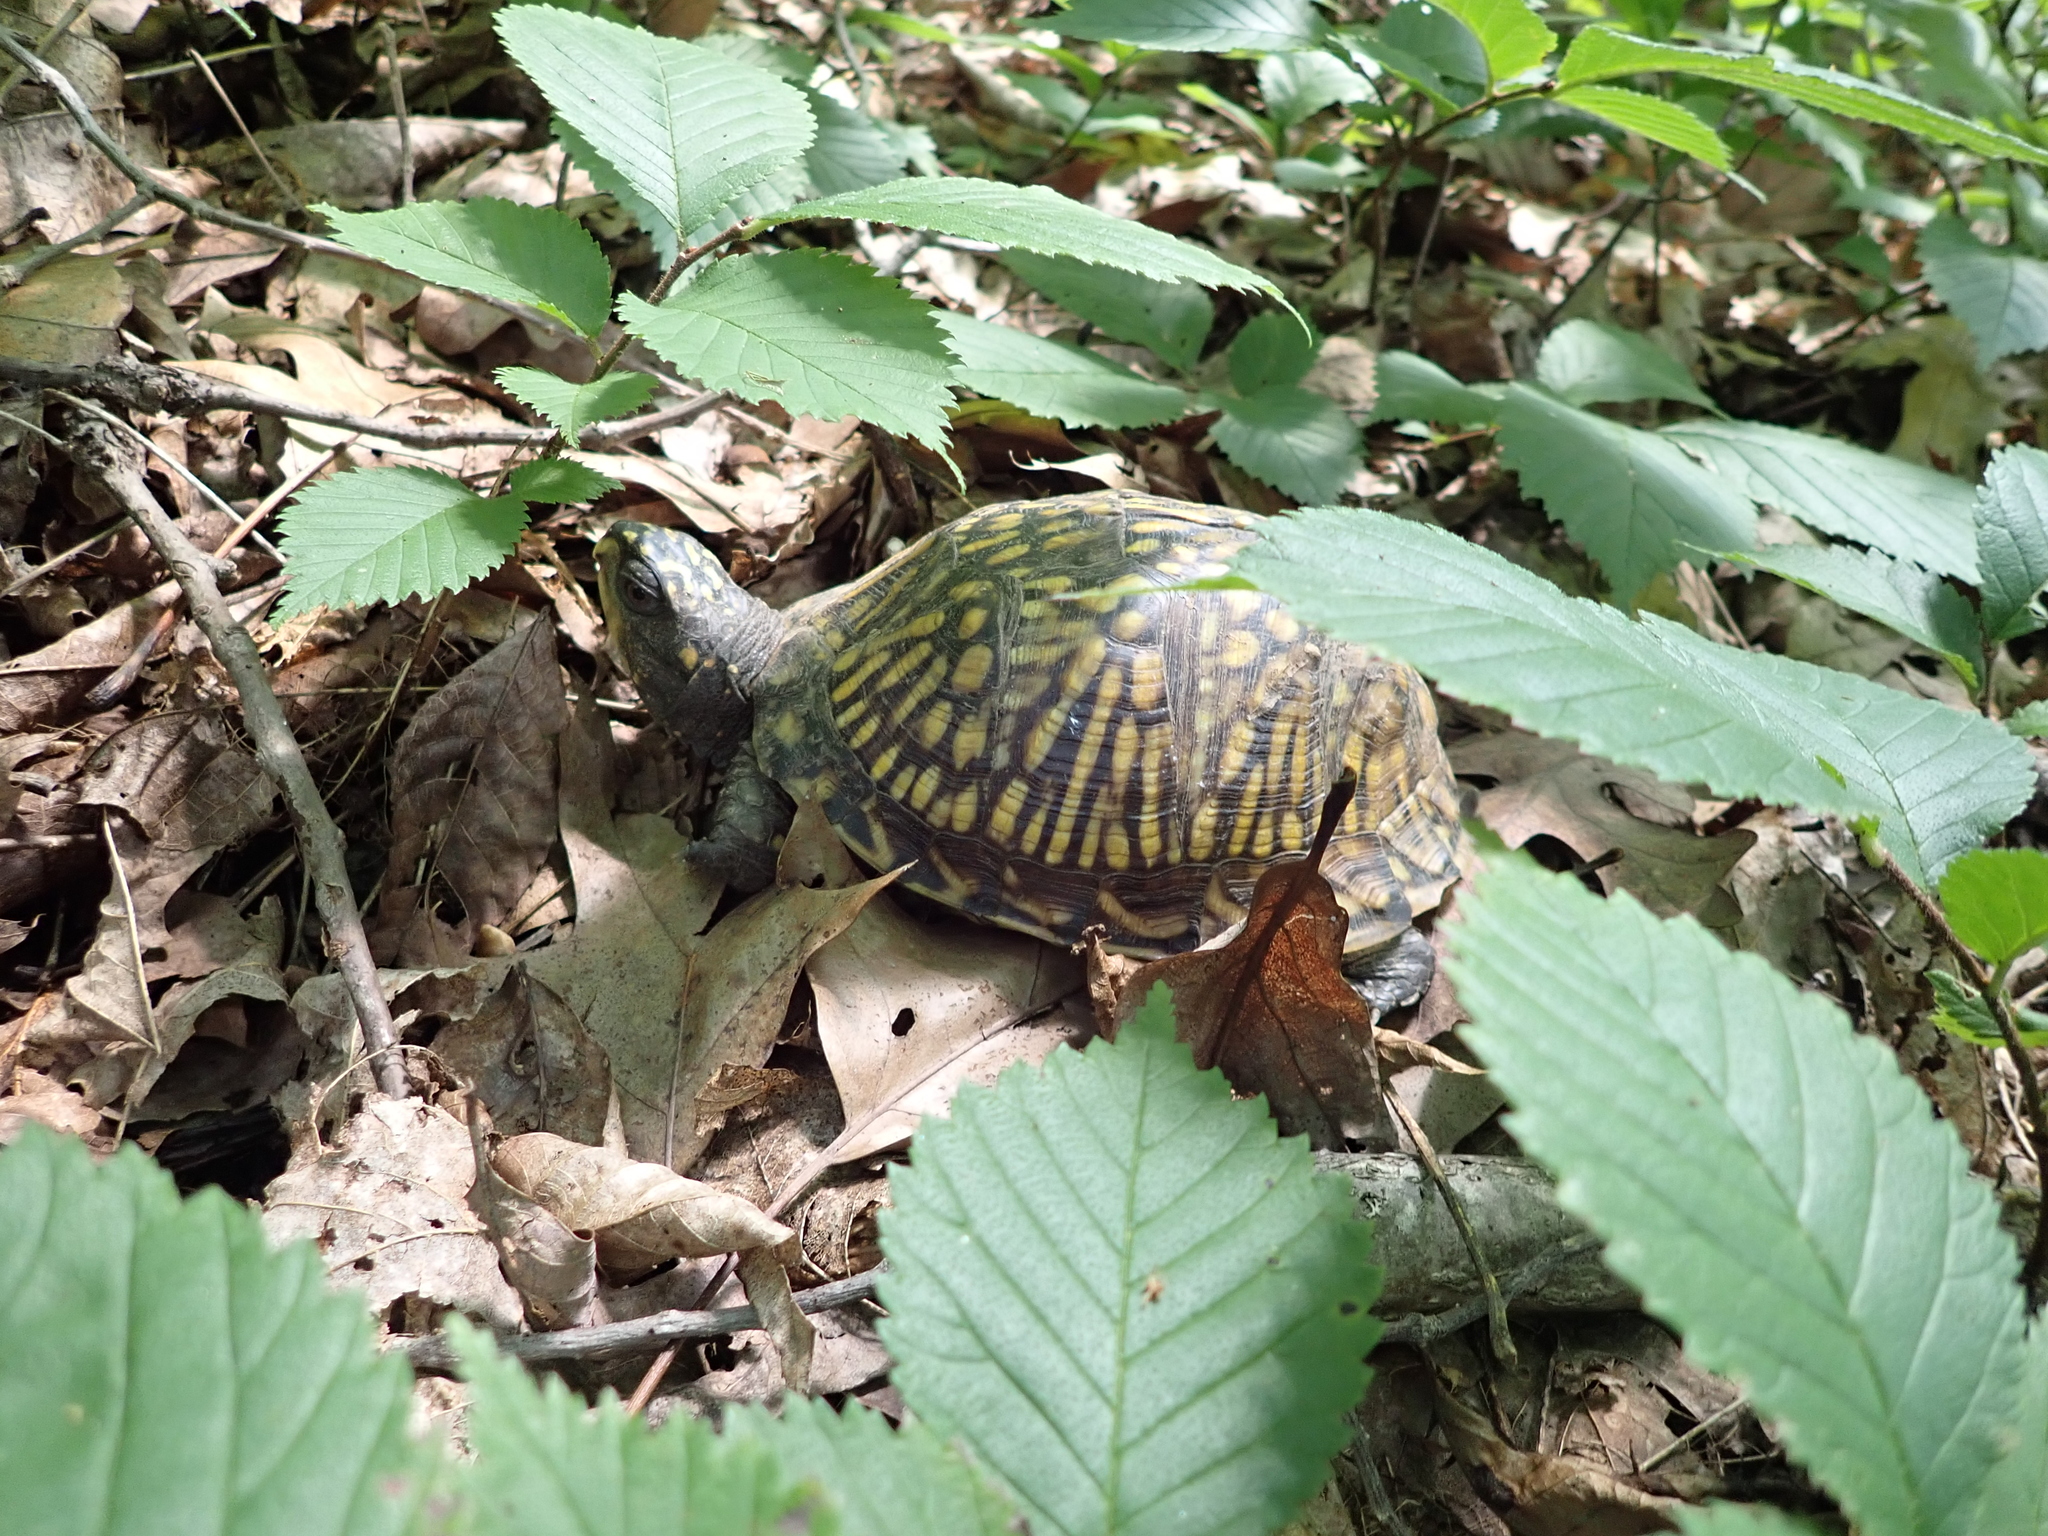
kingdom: Animalia
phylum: Chordata
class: Testudines
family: Emydidae
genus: Terrapene
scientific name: Terrapene carolina
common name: Common box turtle
